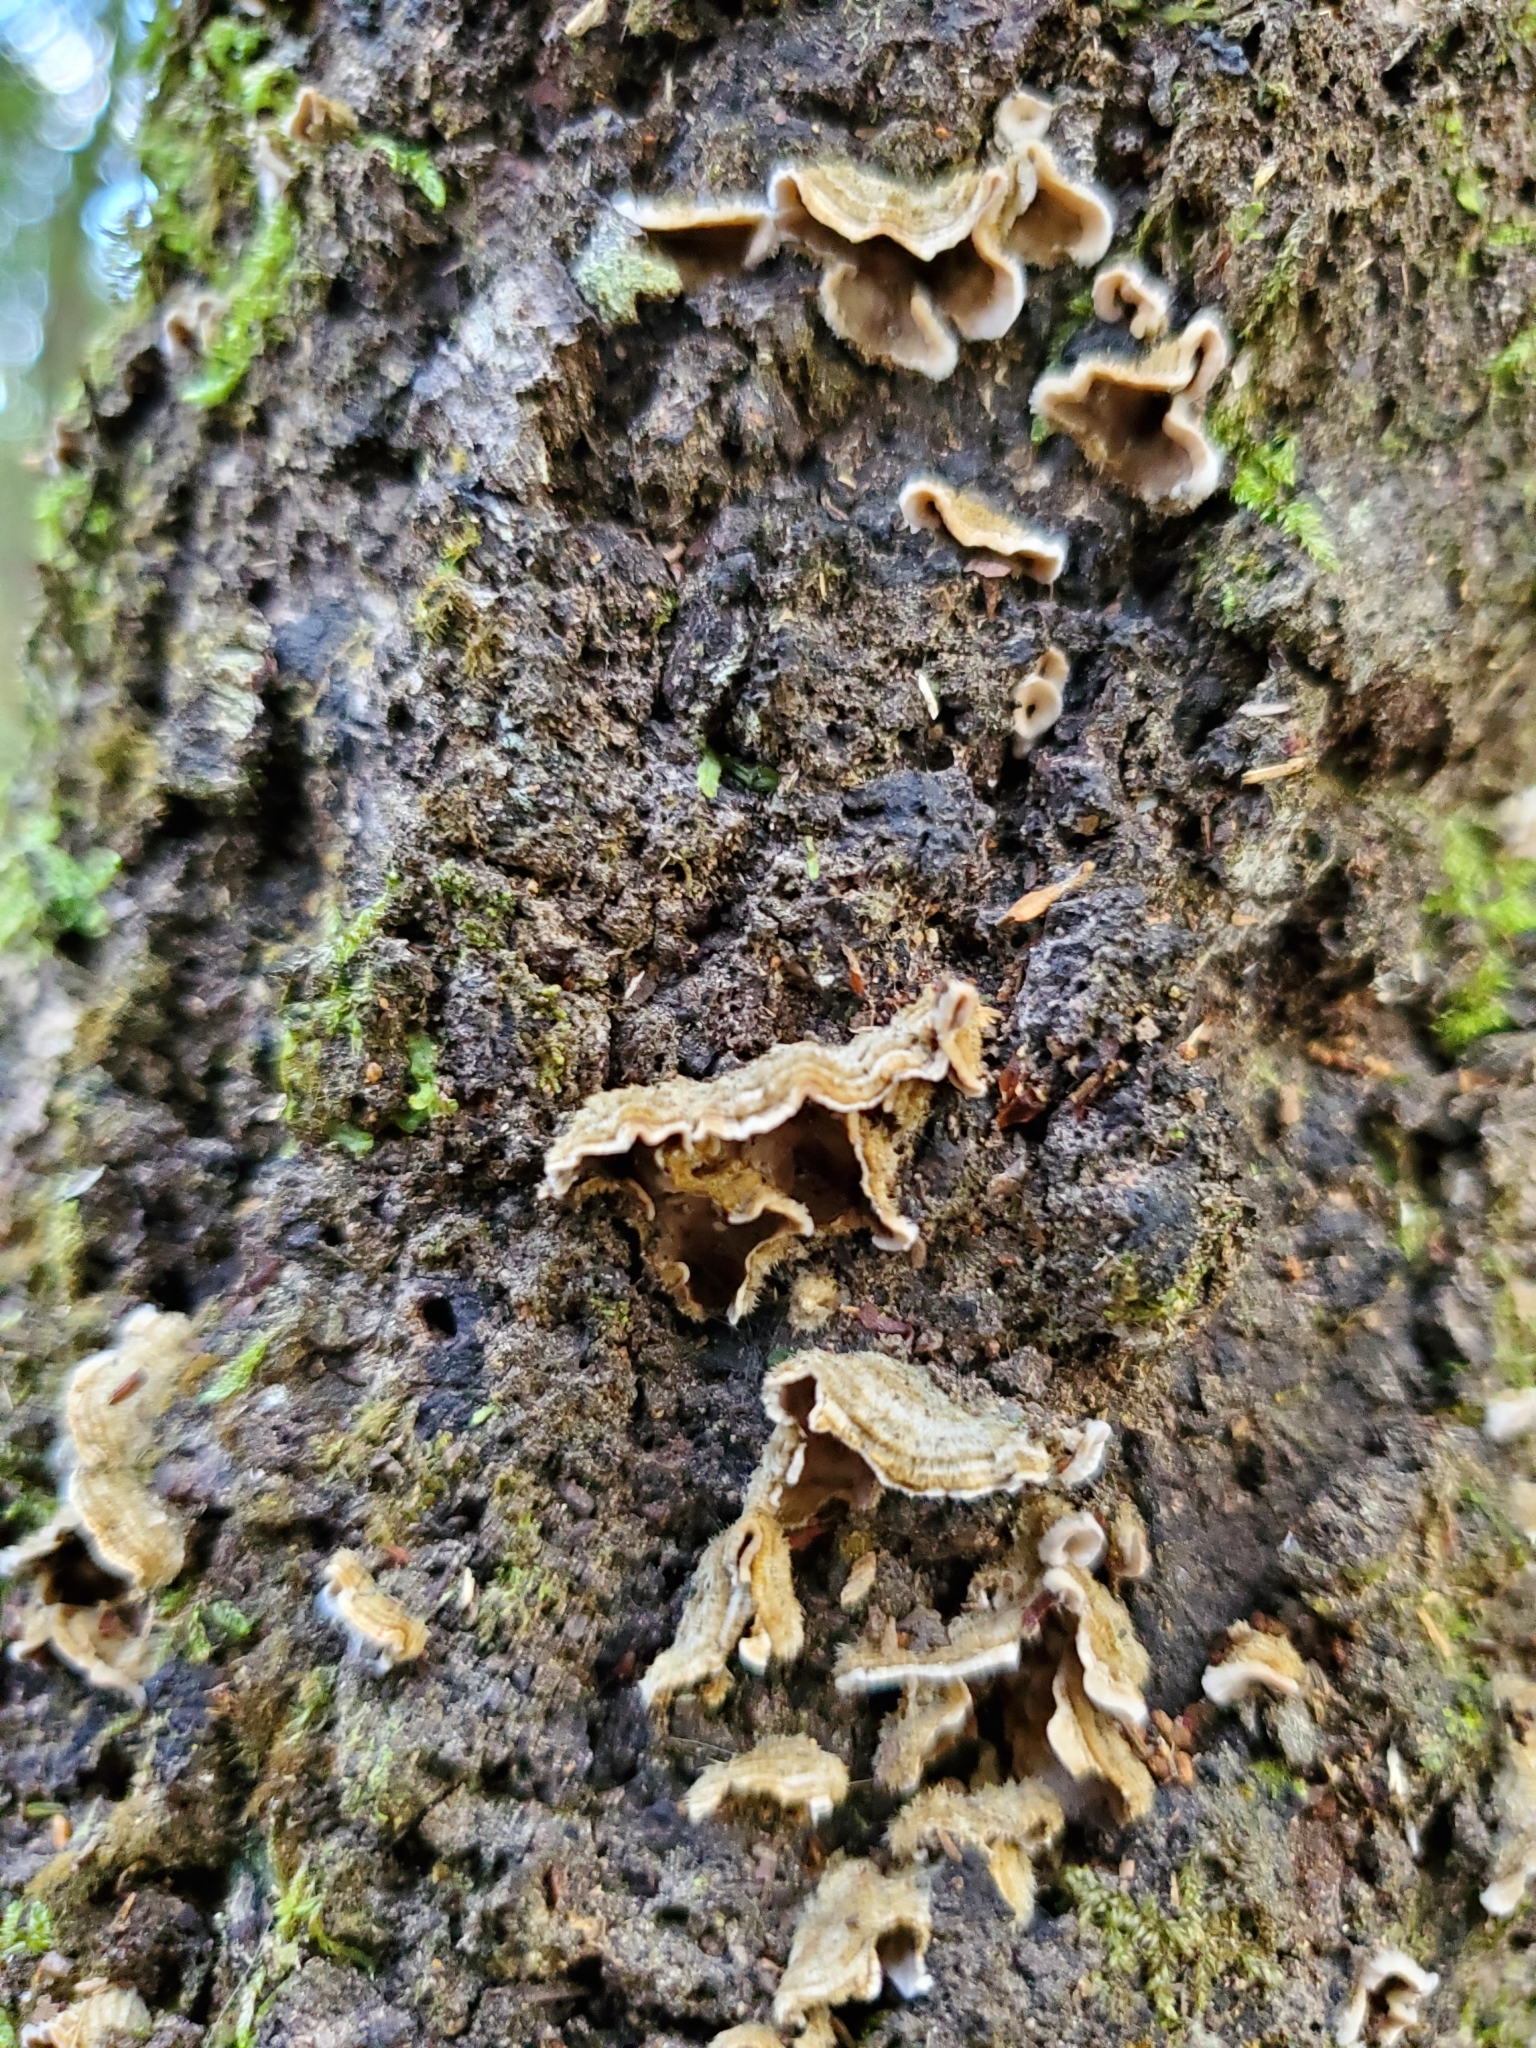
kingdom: Fungi
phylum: Basidiomycota
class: Agaricomycetes
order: Russulales
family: Stereaceae
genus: Stereum
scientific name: Stereum hirsutum
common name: Hairy curtain crust
